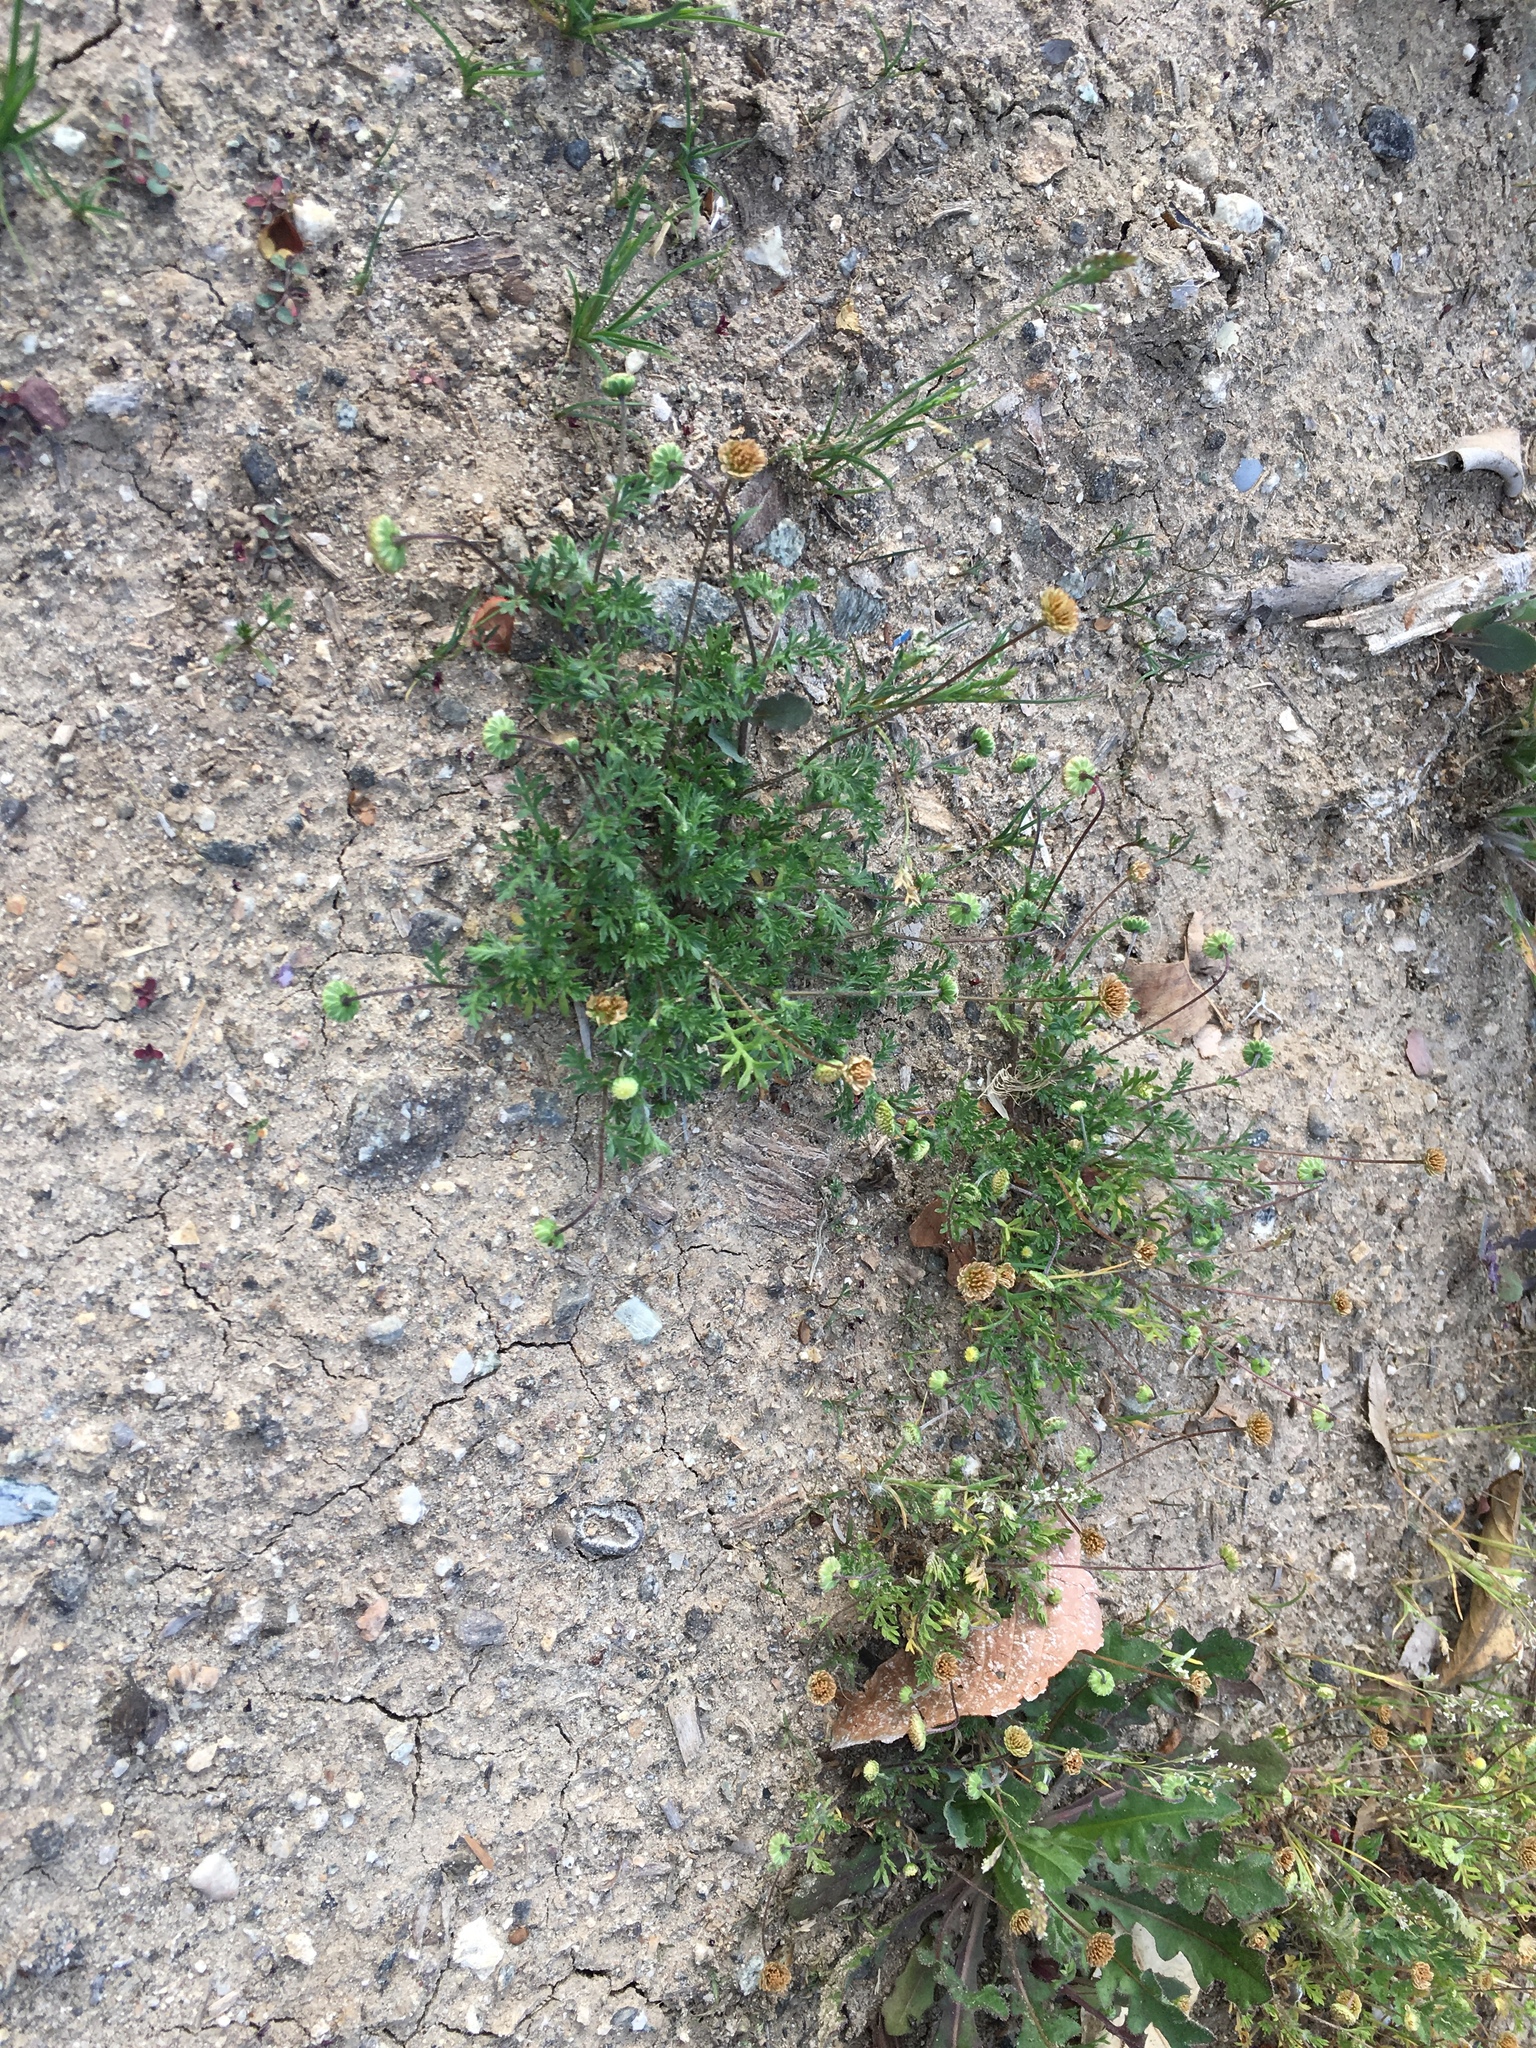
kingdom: Plantae
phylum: Tracheophyta
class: Magnoliopsida
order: Asterales
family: Asteraceae
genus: Cotula
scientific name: Cotula australis
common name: Australian waterbuttons
